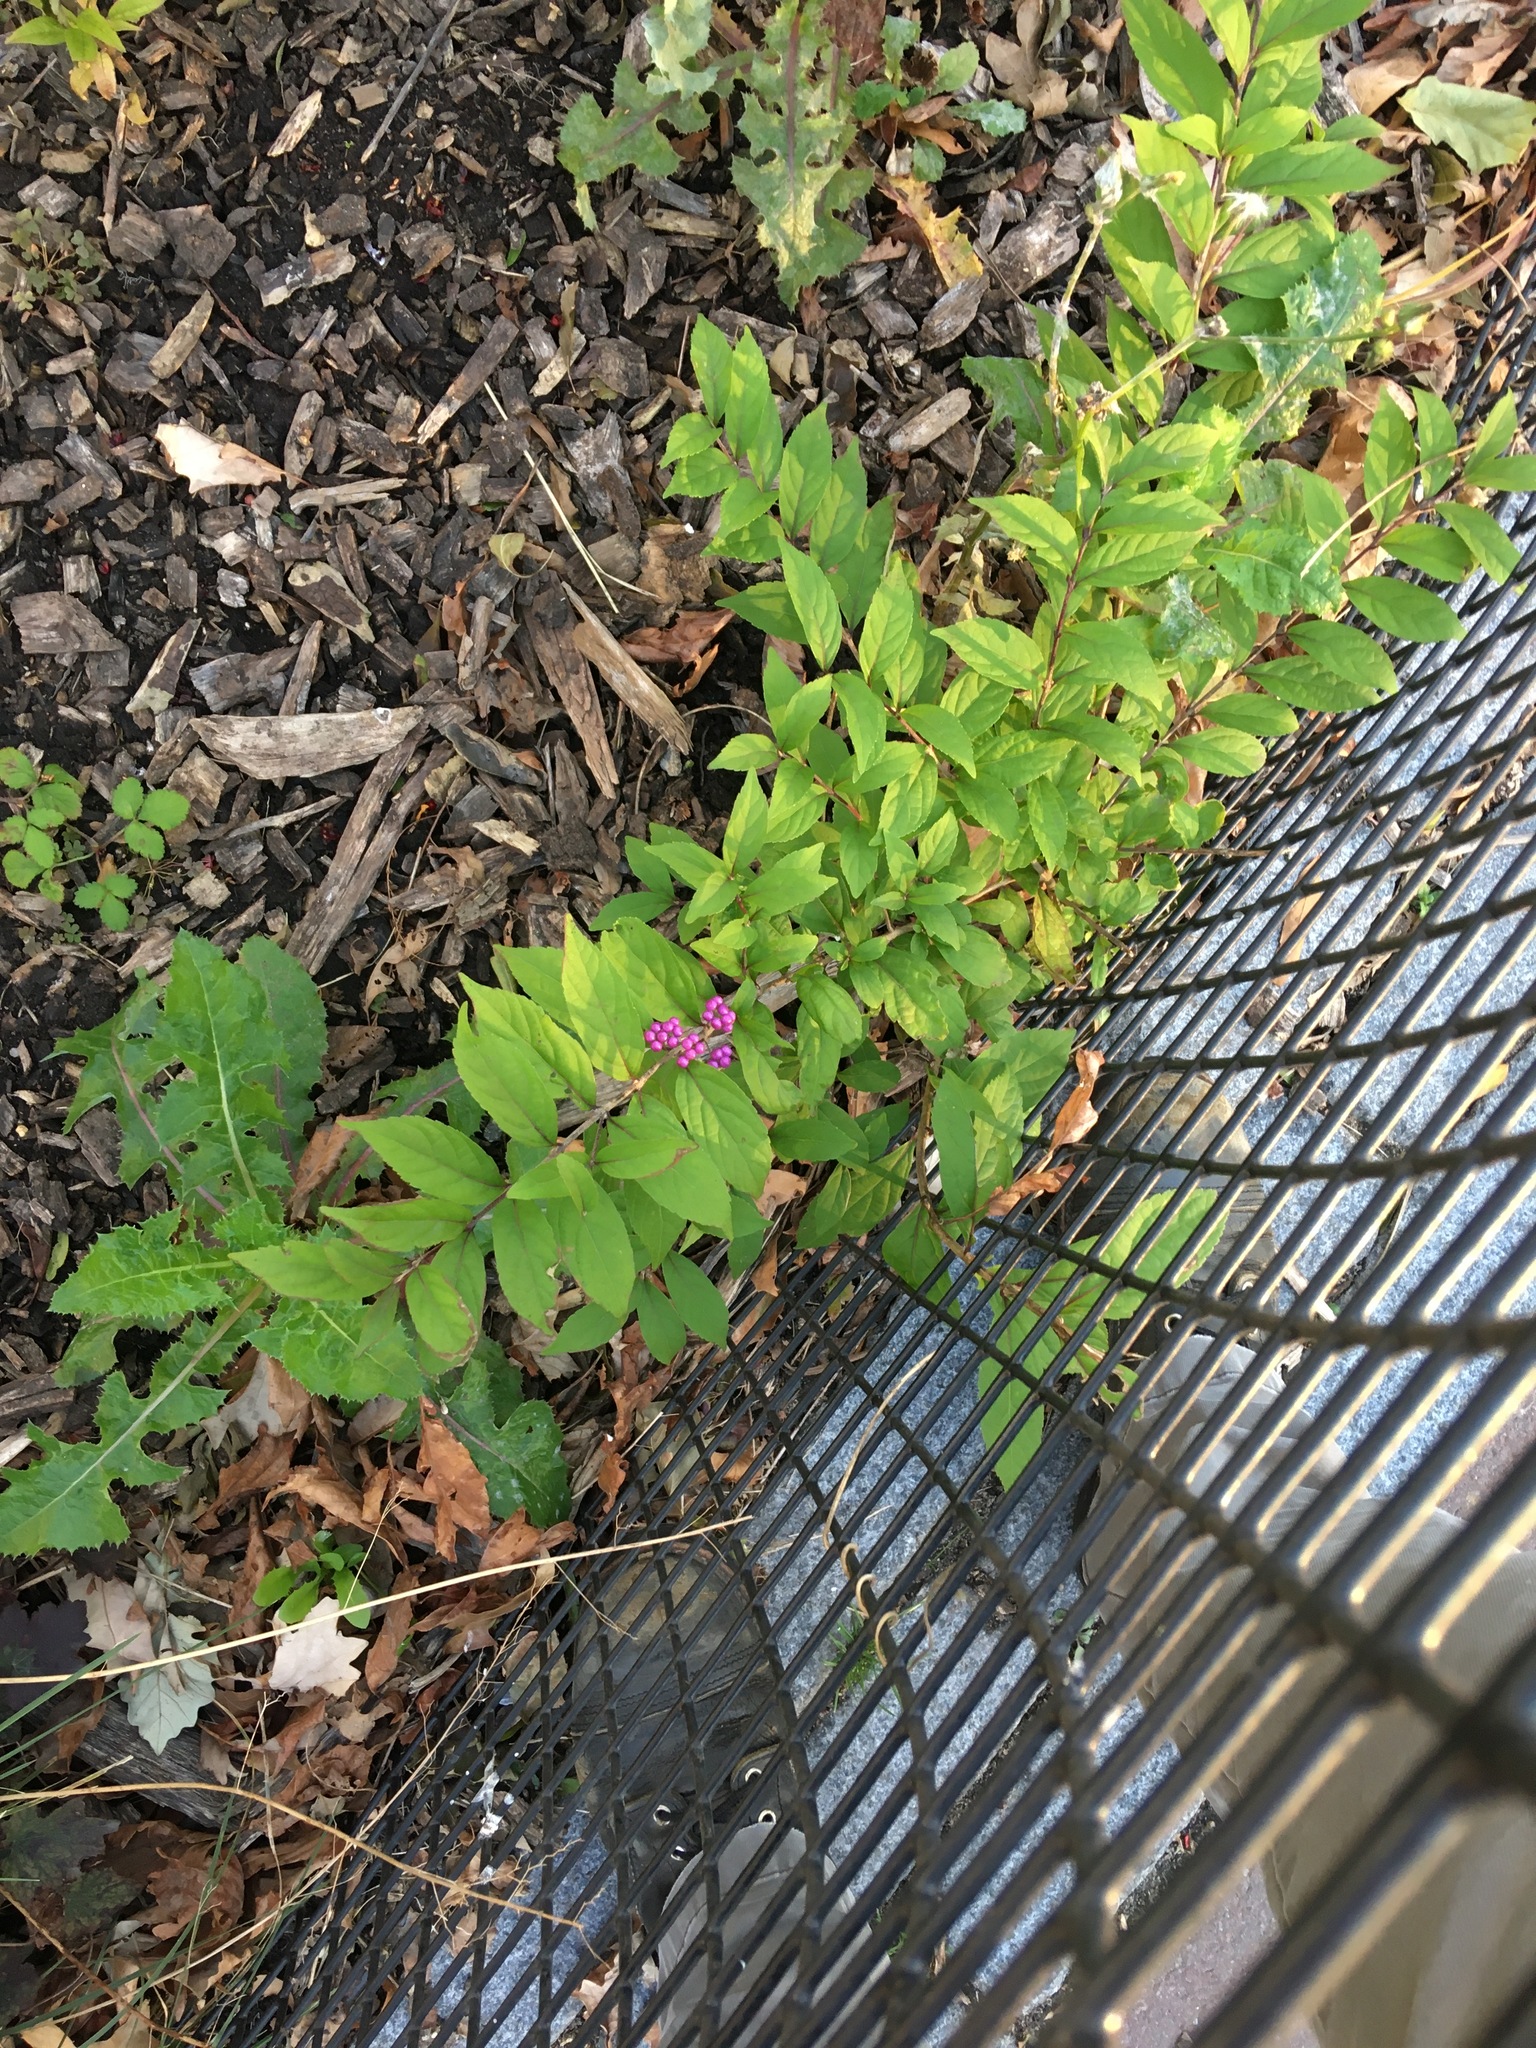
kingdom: Plantae
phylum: Tracheophyta
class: Magnoliopsida
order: Lamiales
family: Lamiaceae
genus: Callicarpa
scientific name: Callicarpa dichotoma
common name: Purple beauty-berry
